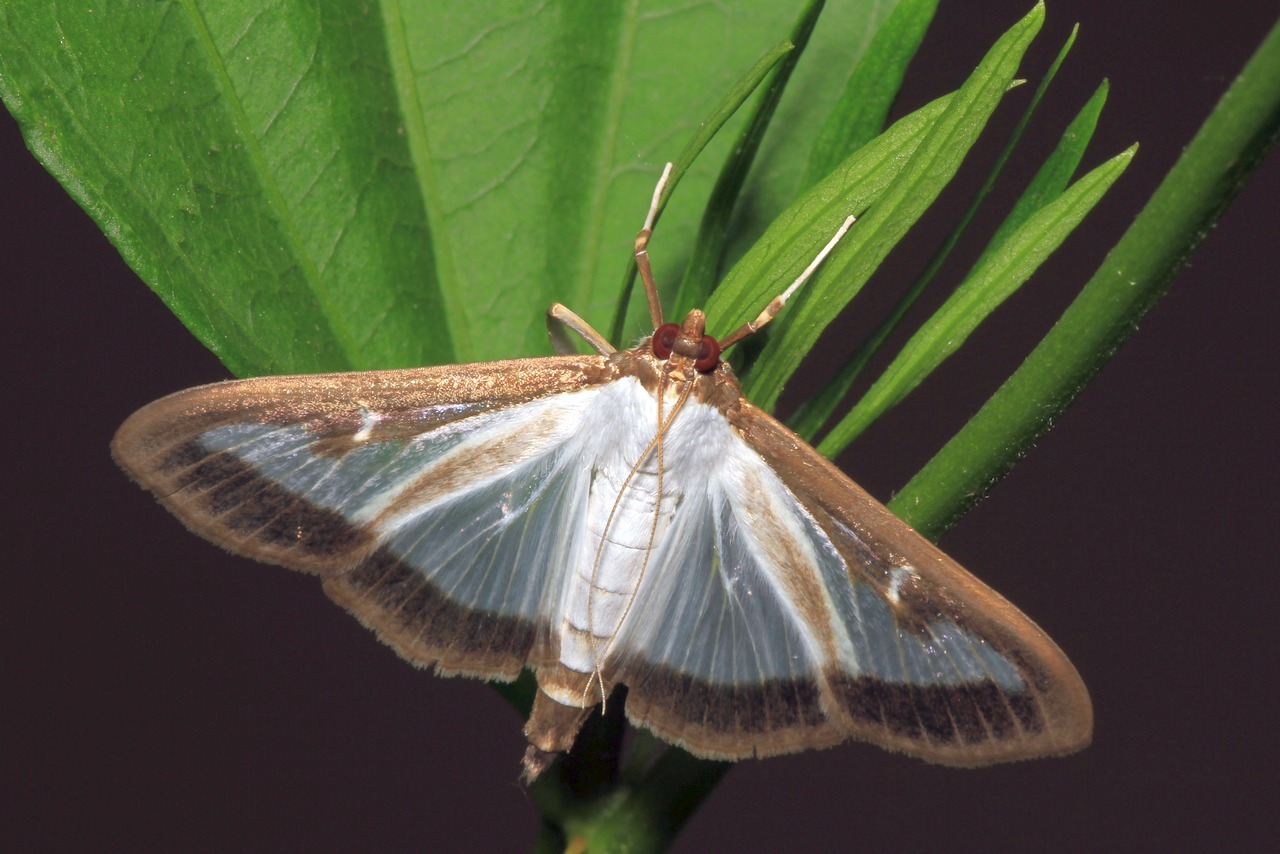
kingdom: Animalia
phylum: Arthropoda
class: Insecta
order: Lepidoptera
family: Crambidae
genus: Cydalima
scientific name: Cydalima perspectalis
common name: Box tree moth
